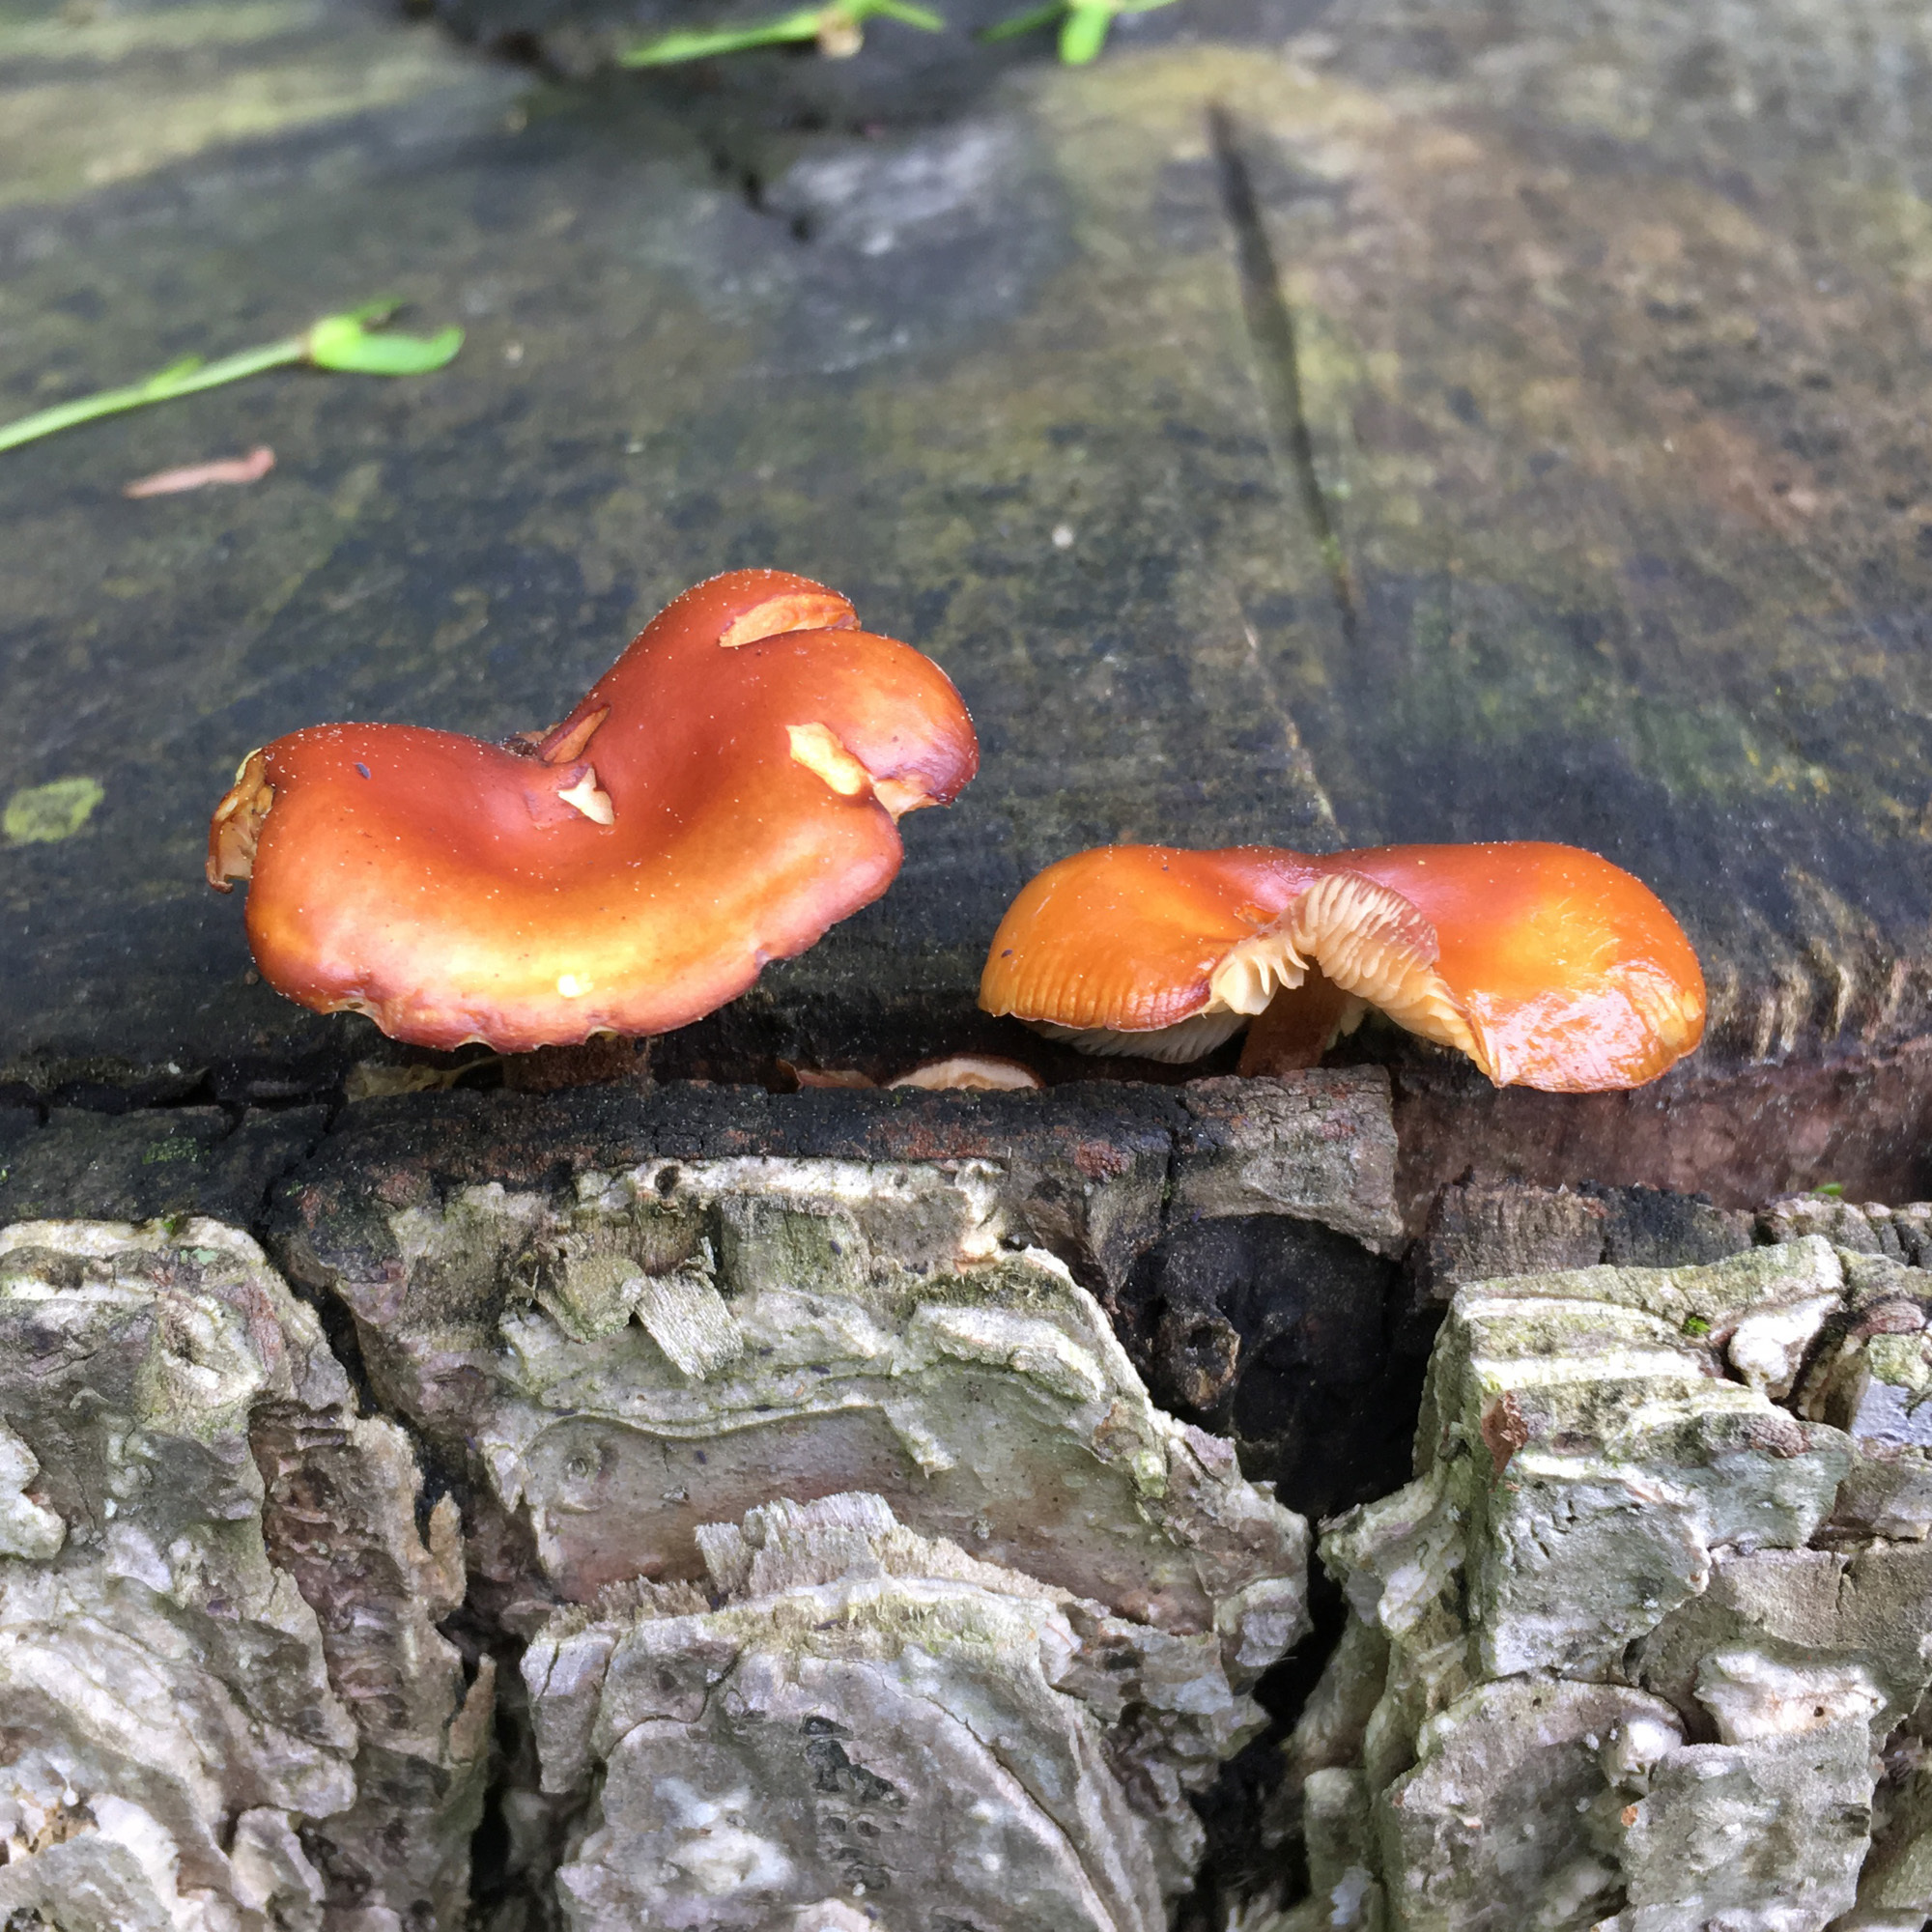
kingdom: Fungi
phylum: Basidiomycota
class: Agaricomycetes
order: Agaricales
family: Physalacriaceae
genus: Flammulina
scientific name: Flammulina velutipes
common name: Velvet shank
